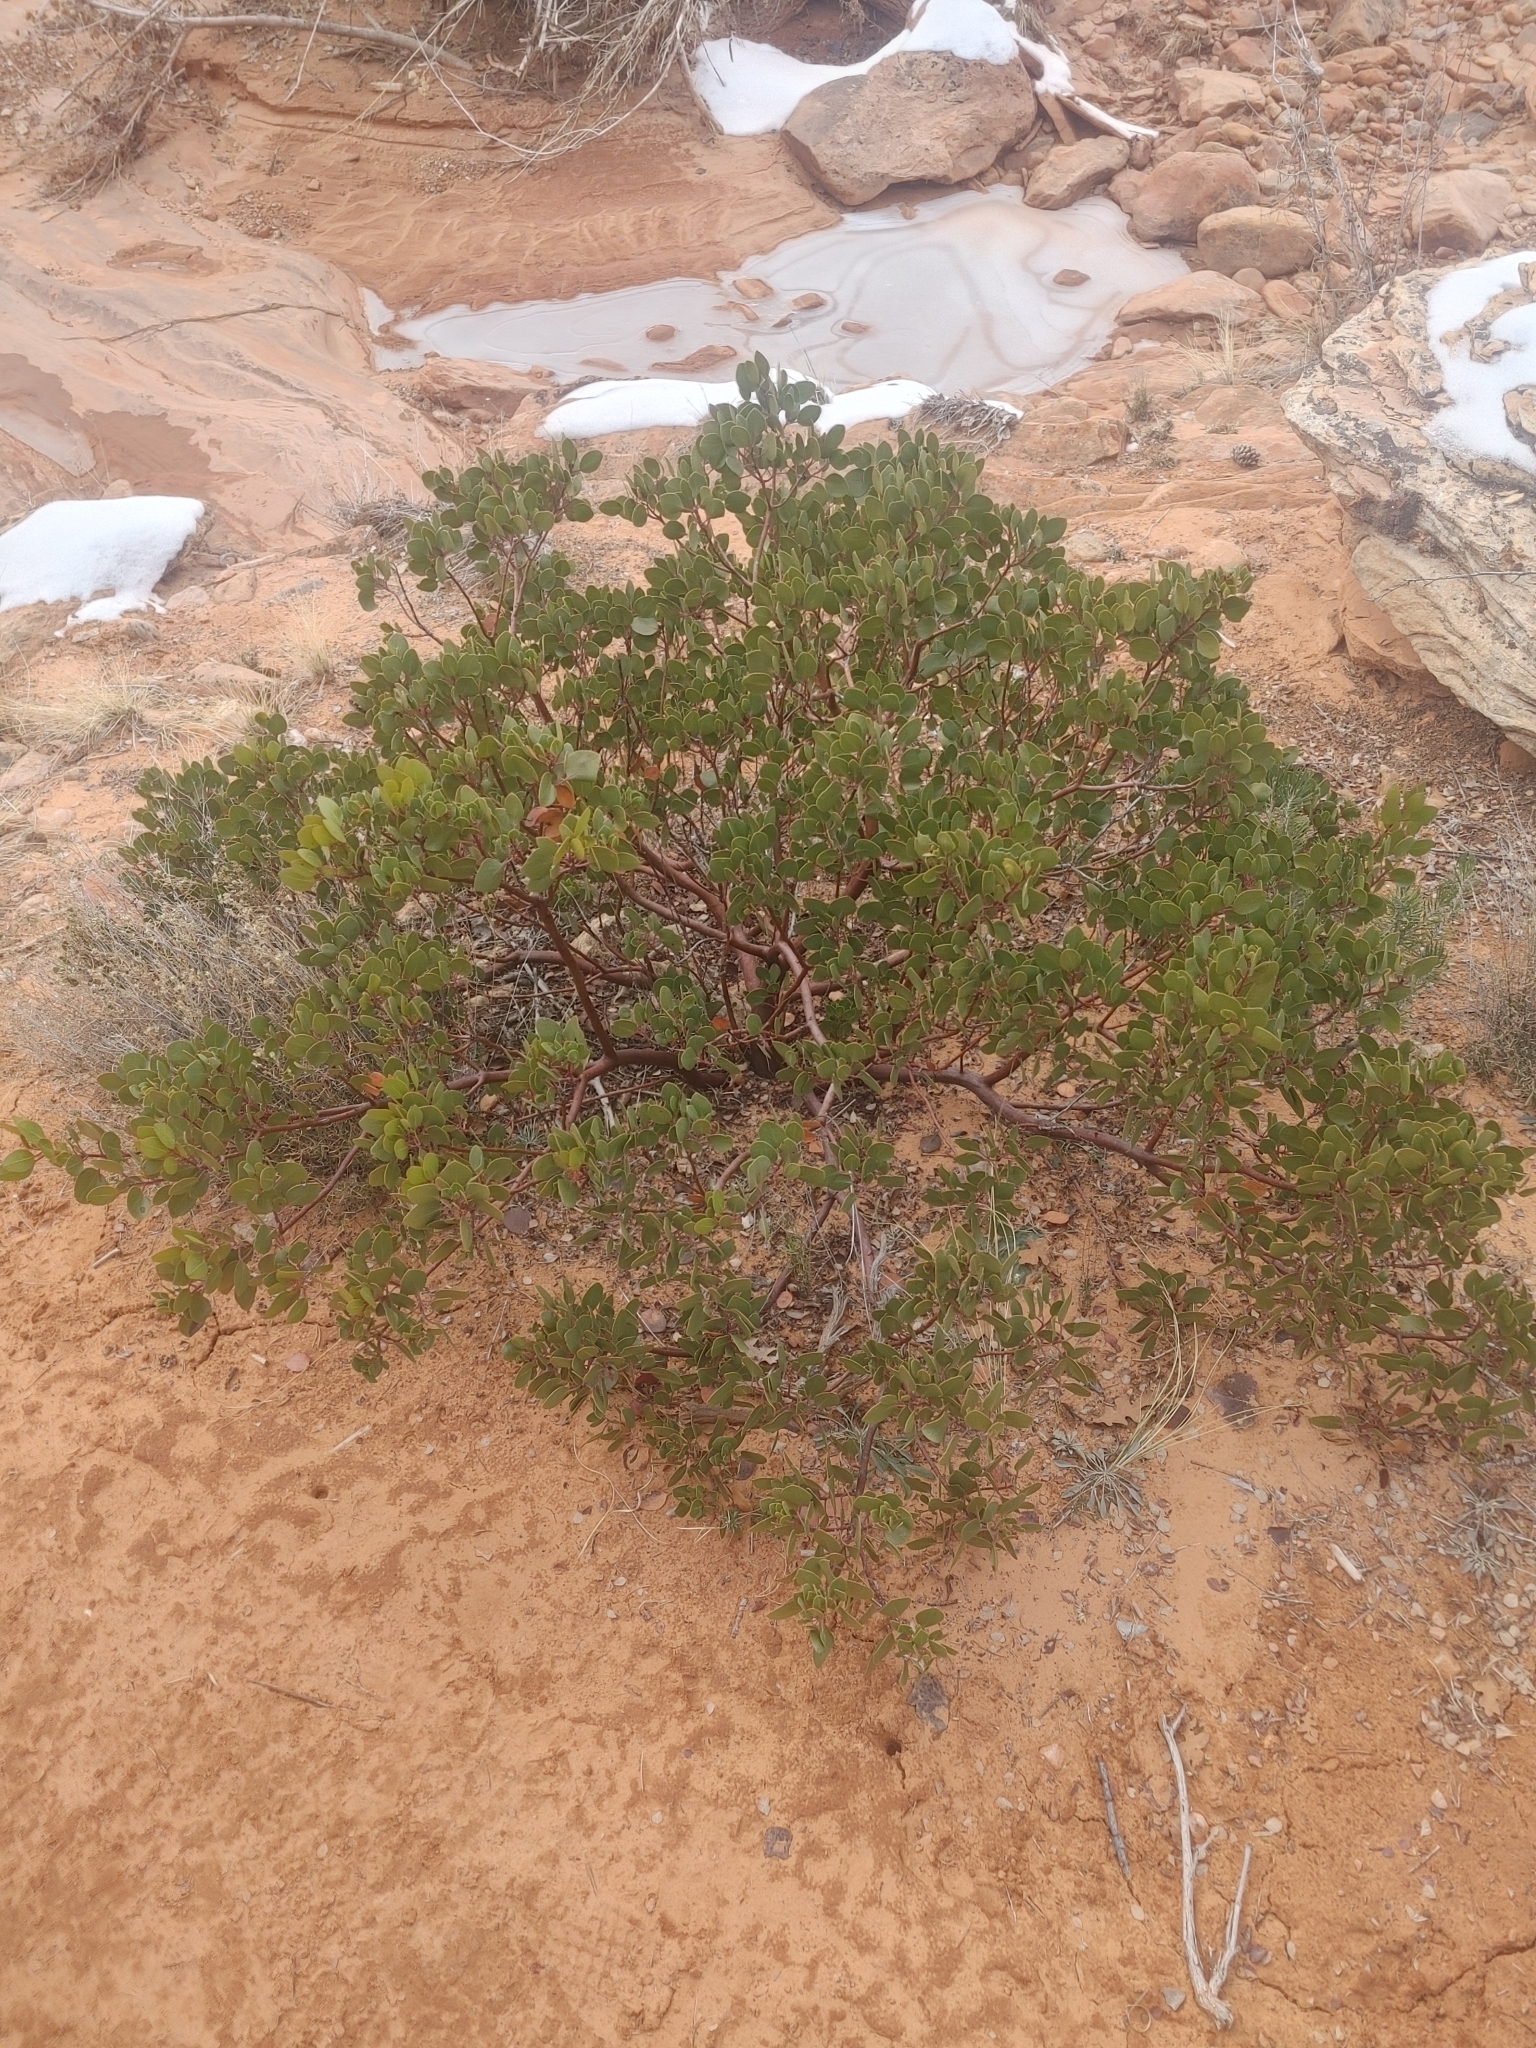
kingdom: Plantae
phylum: Tracheophyta
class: Magnoliopsida
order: Ericales
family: Ericaceae
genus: Arctostaphylos
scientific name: Arctostaphylos patula
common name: Green-leaf manzanita
